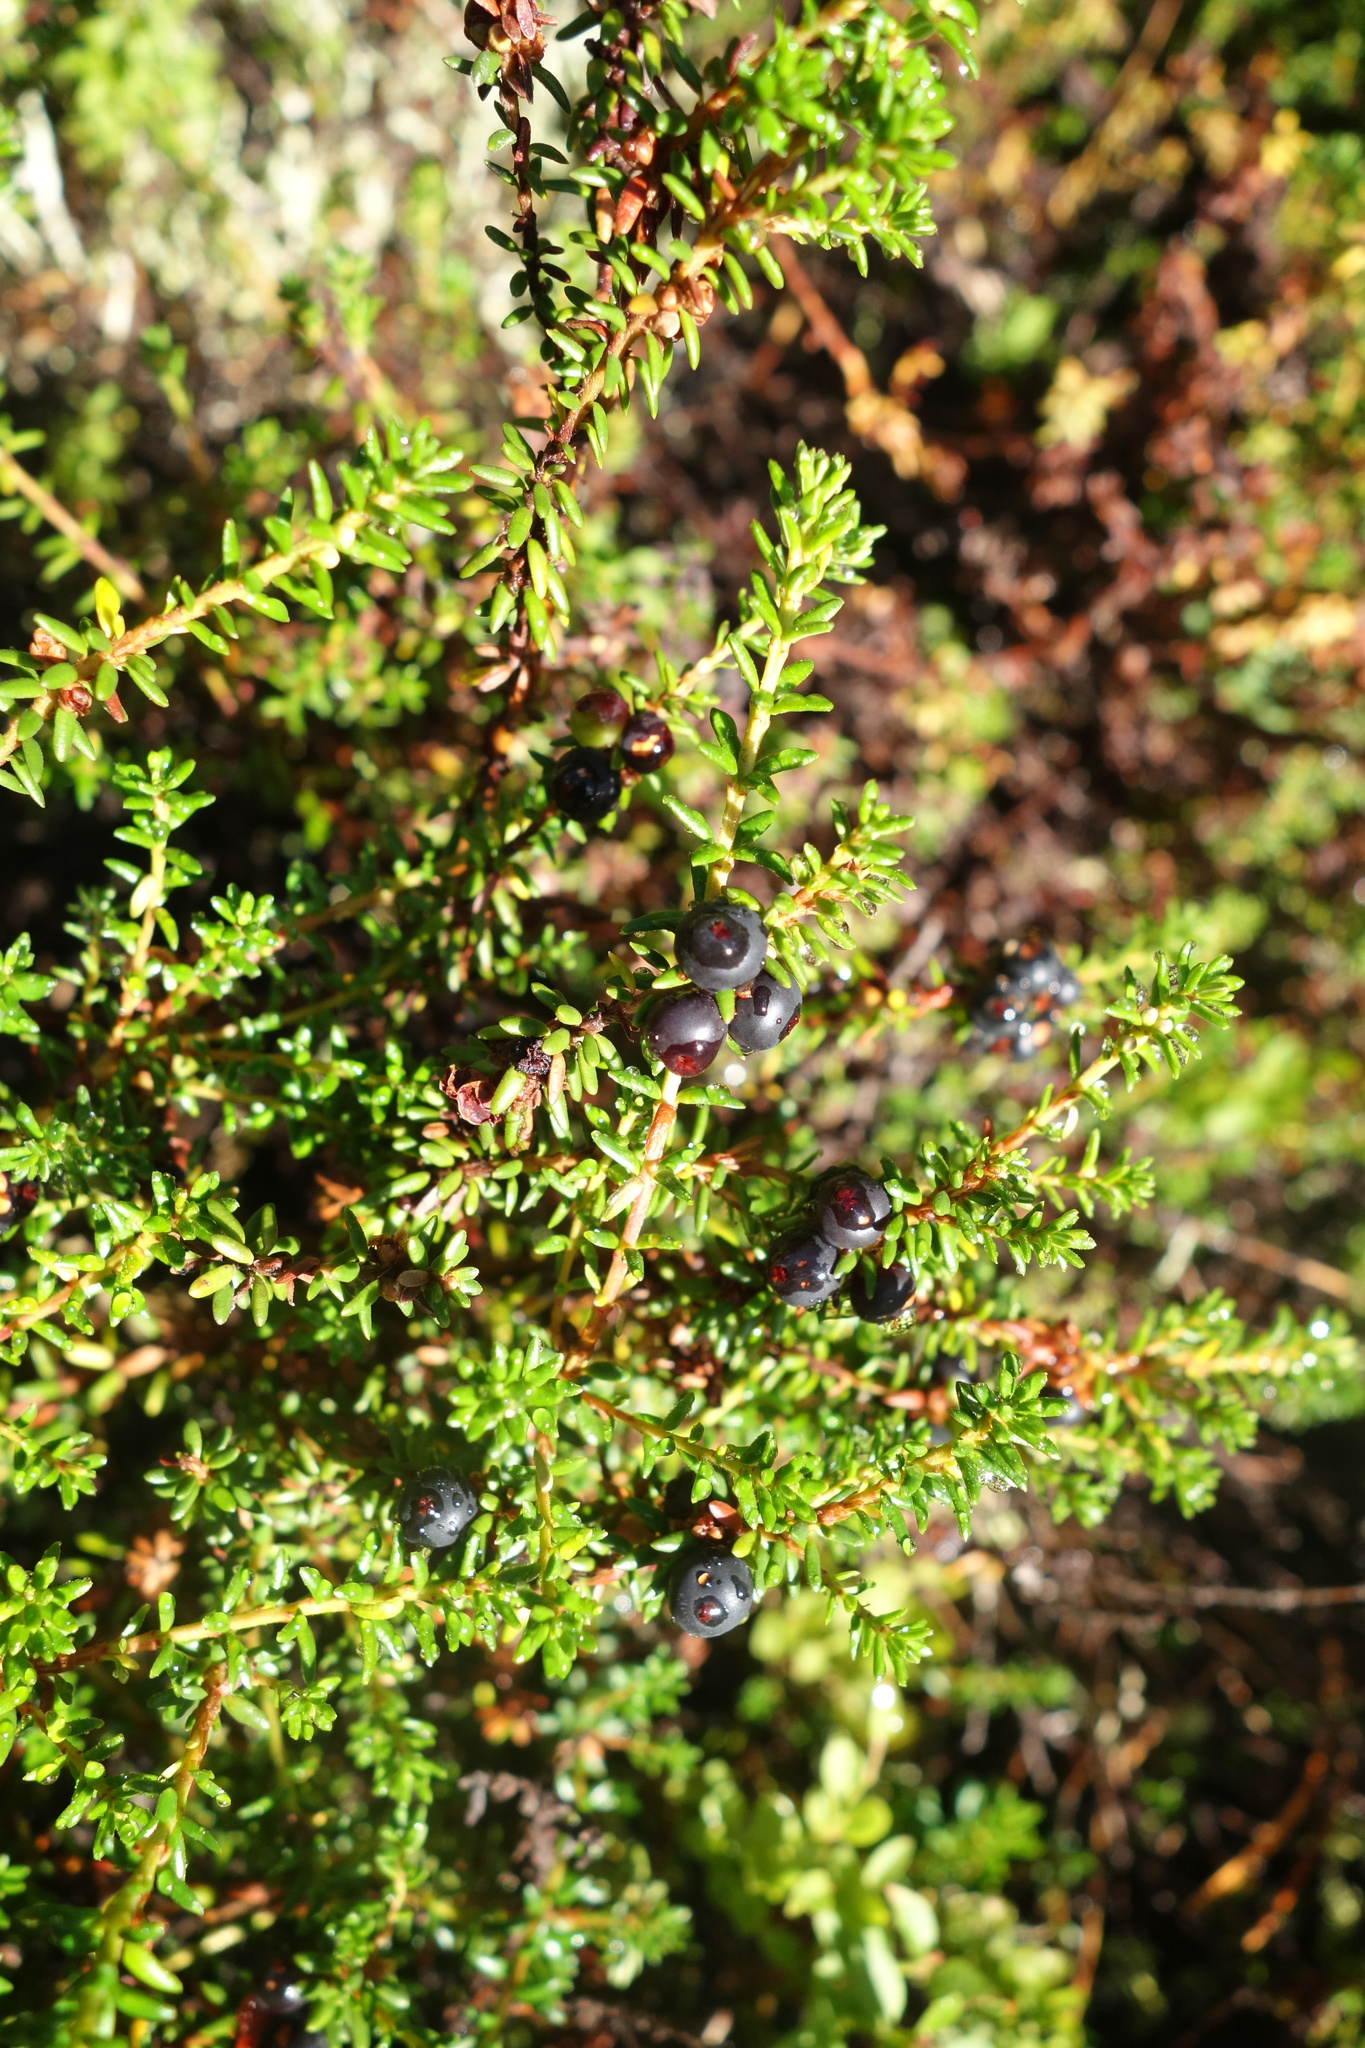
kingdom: Plantae
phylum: Tracheophyta
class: Magnoliopsida
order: Ericales
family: Ericaceae
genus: Empetrum
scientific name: Empetrum nigrum
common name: Black crowberry
